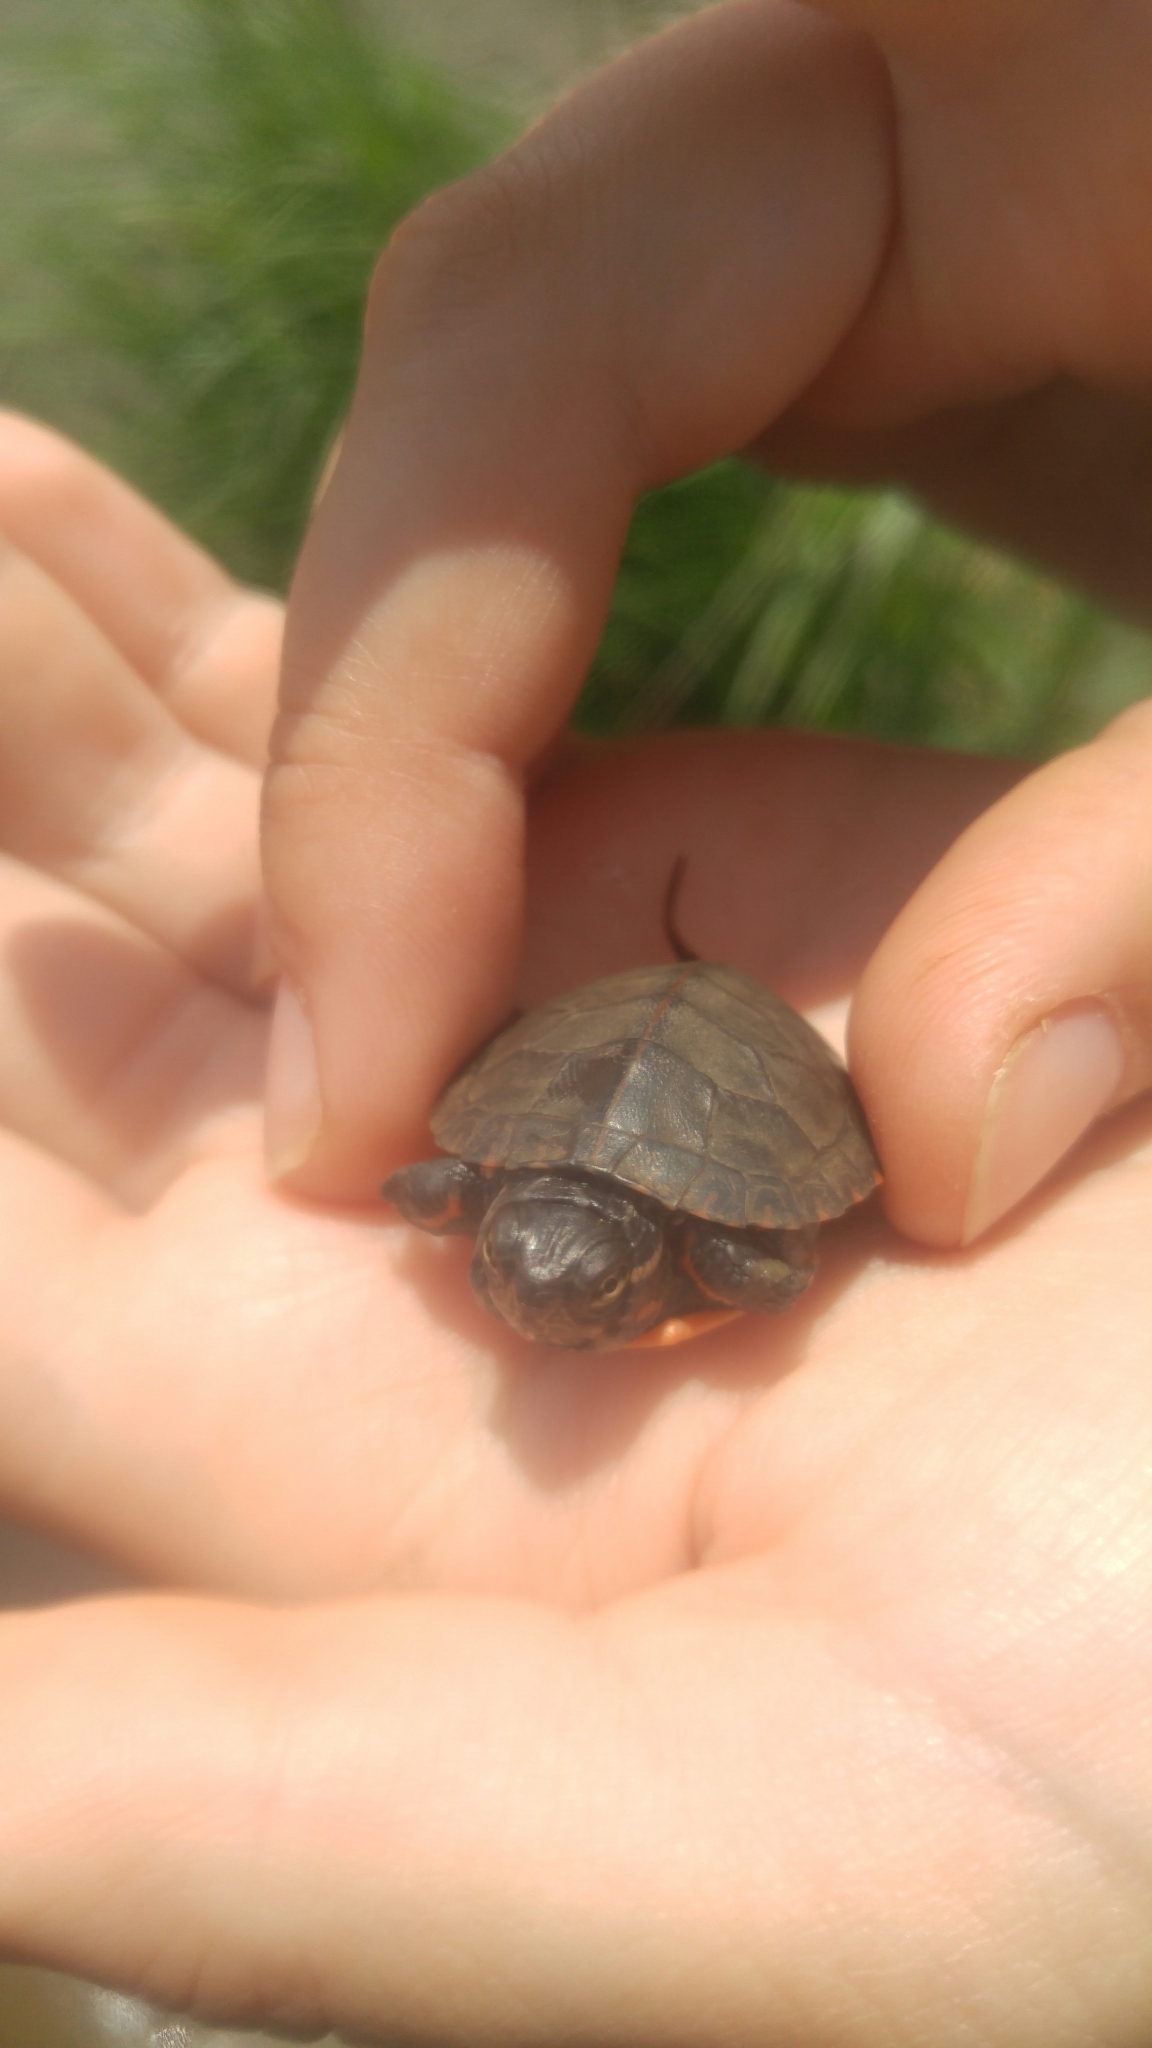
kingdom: Animalia
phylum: Chordata
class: Testudines
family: Emydidae
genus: Chrysemys
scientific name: Chrysemys picta
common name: Painted turtle
